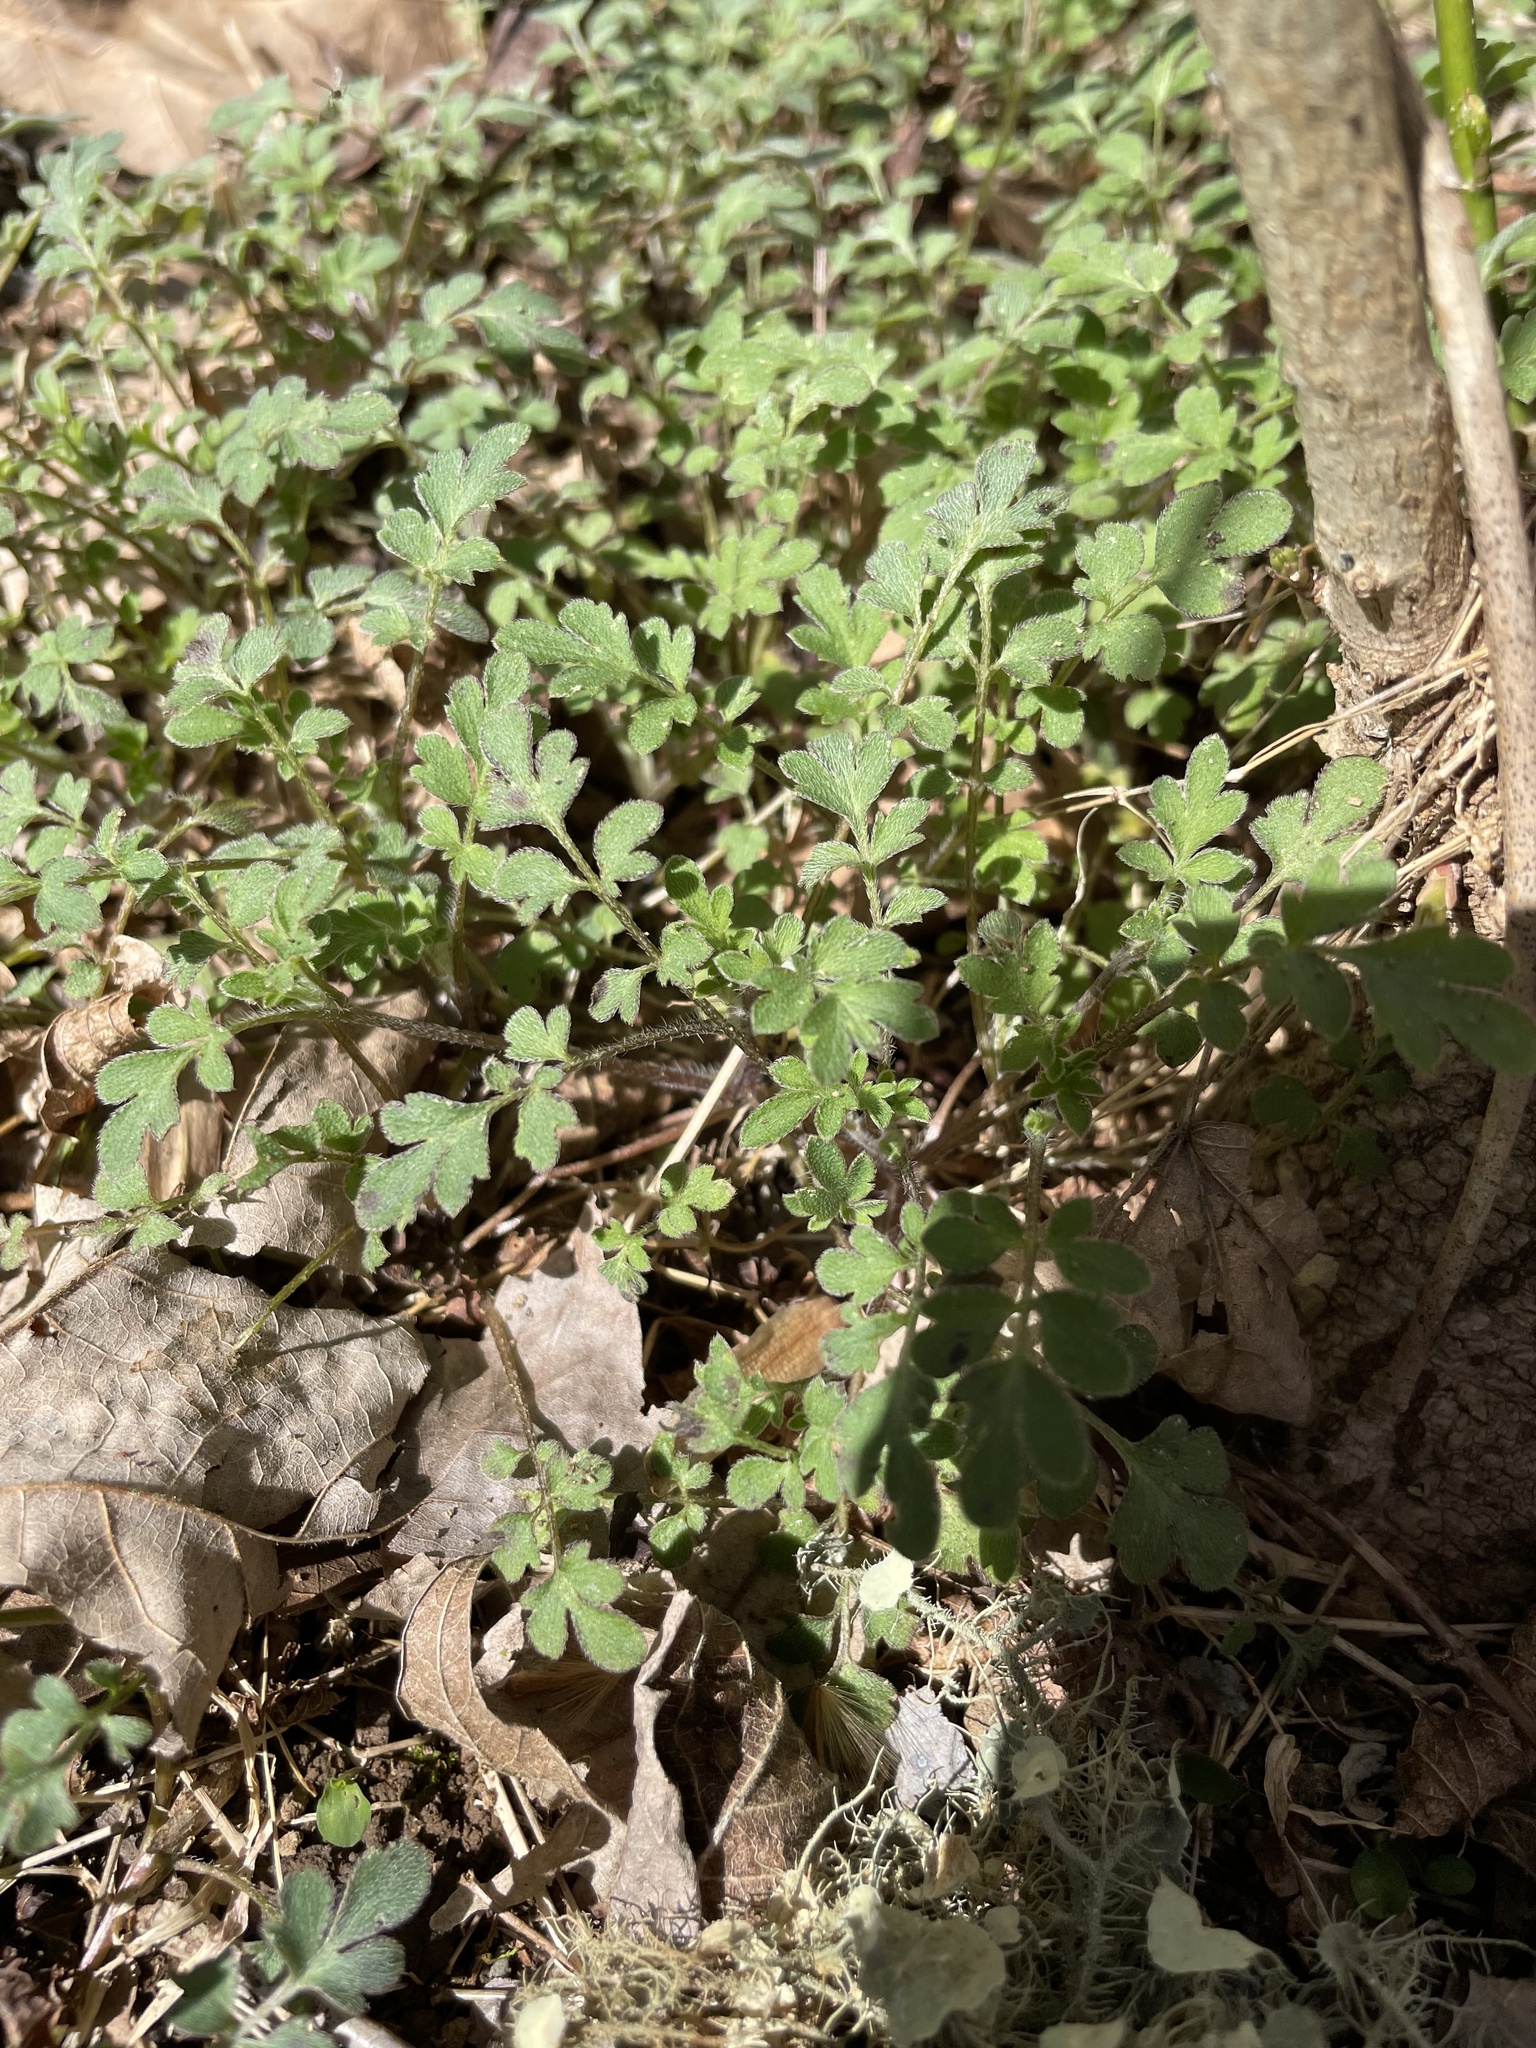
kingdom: Plantae
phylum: Tracheophyta
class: Magnoliopsida
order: Boraginales
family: Hydrophyllaceae
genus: Phacelia
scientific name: Phacelia covillei
